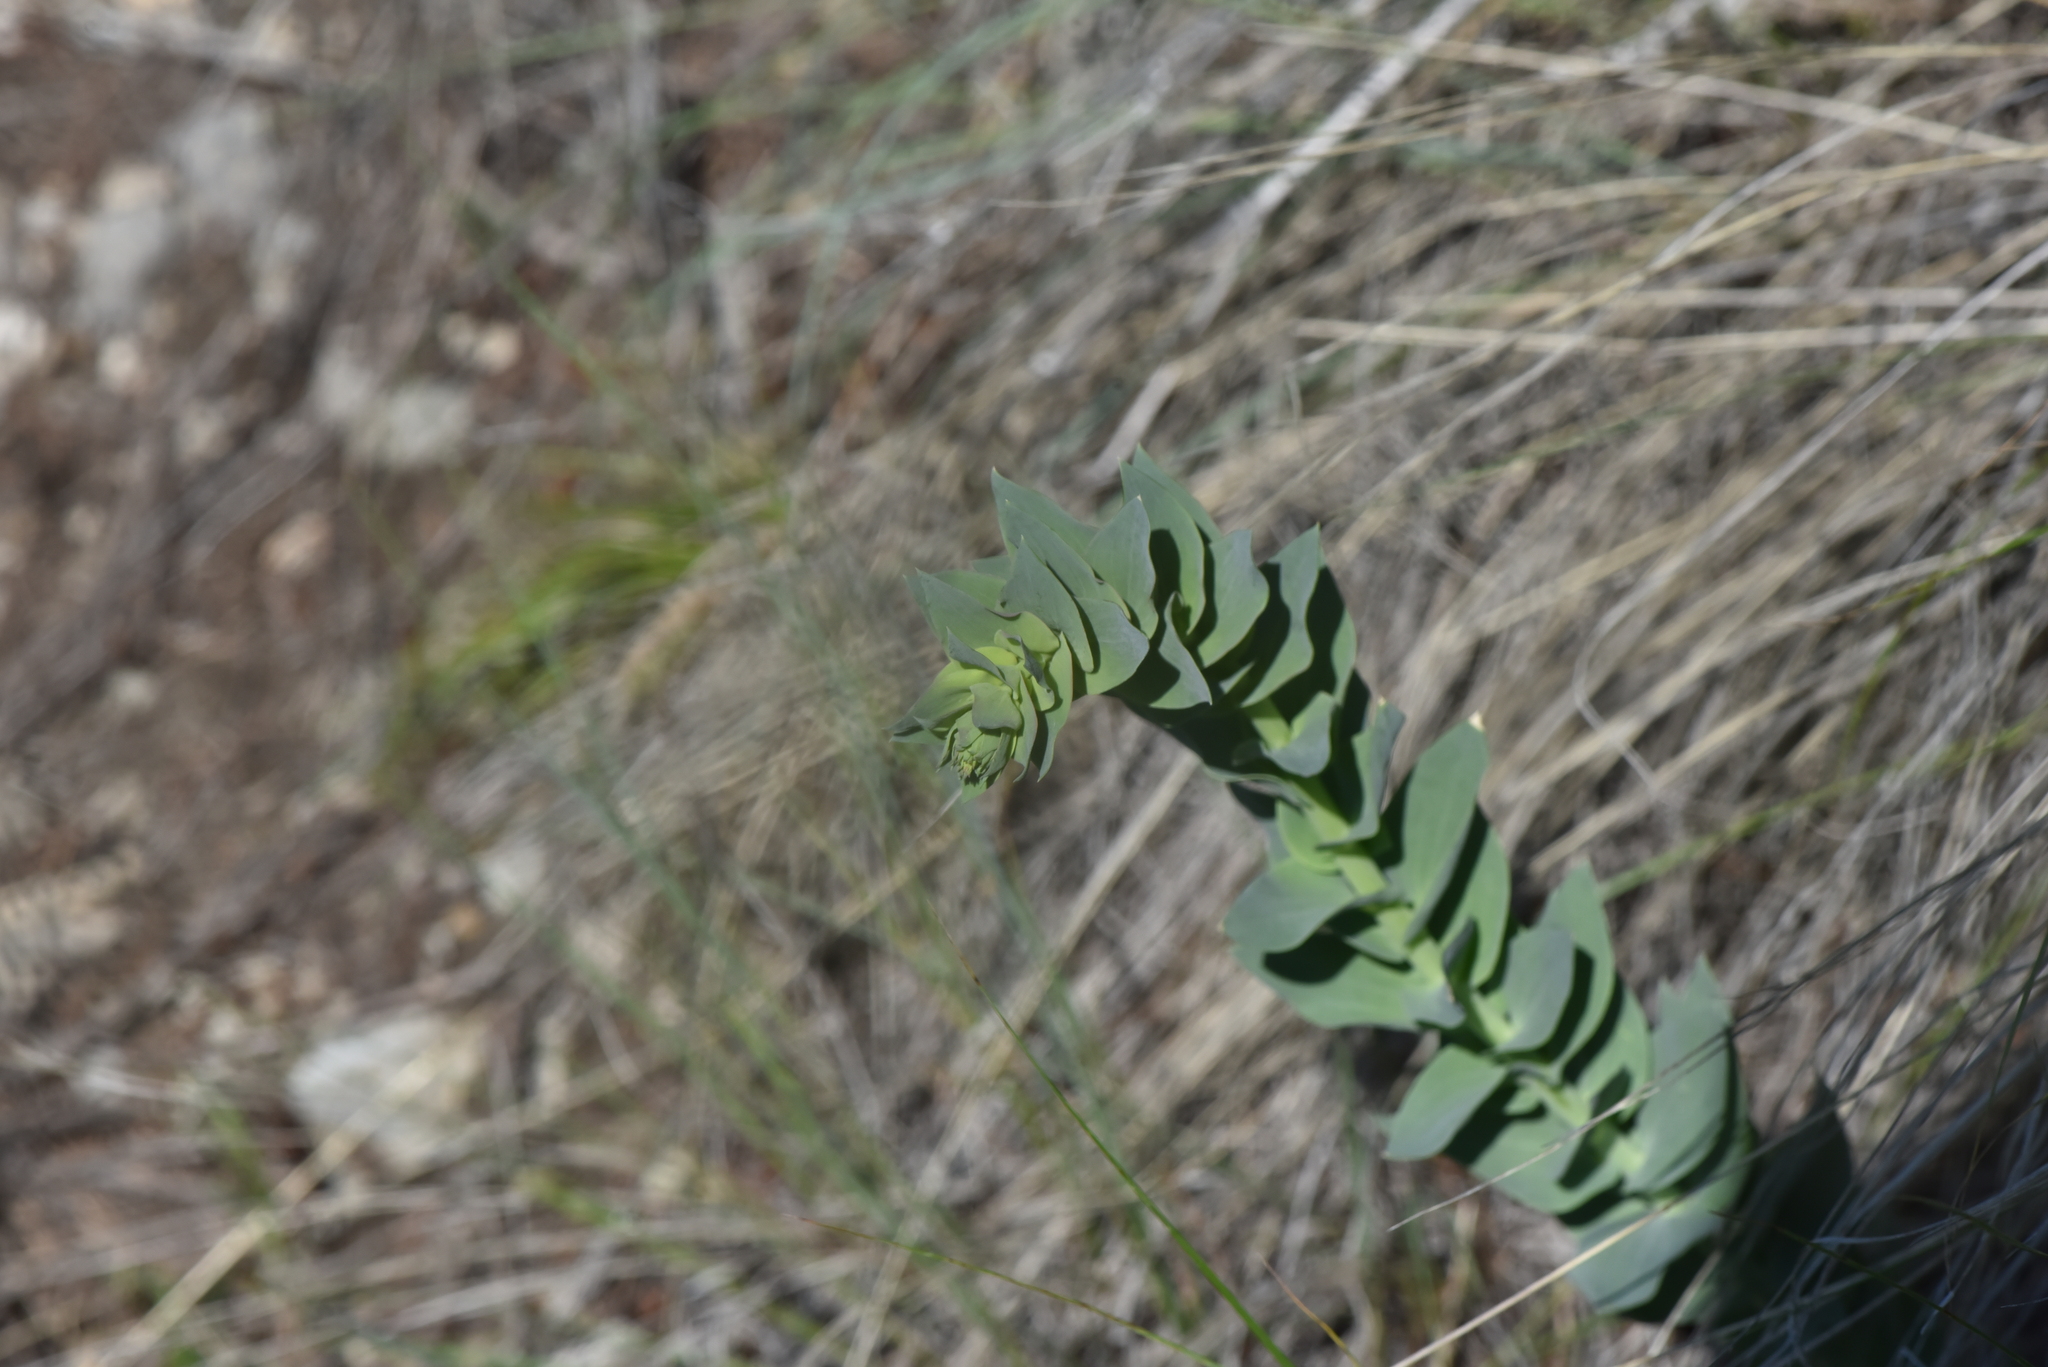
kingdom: Plantae
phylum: Tracheophyta
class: Magnoliopsida
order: Lamiales
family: Plantaginaceae
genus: Linaria
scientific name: Linaria dalmatica
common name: Dalmatian toadflax
